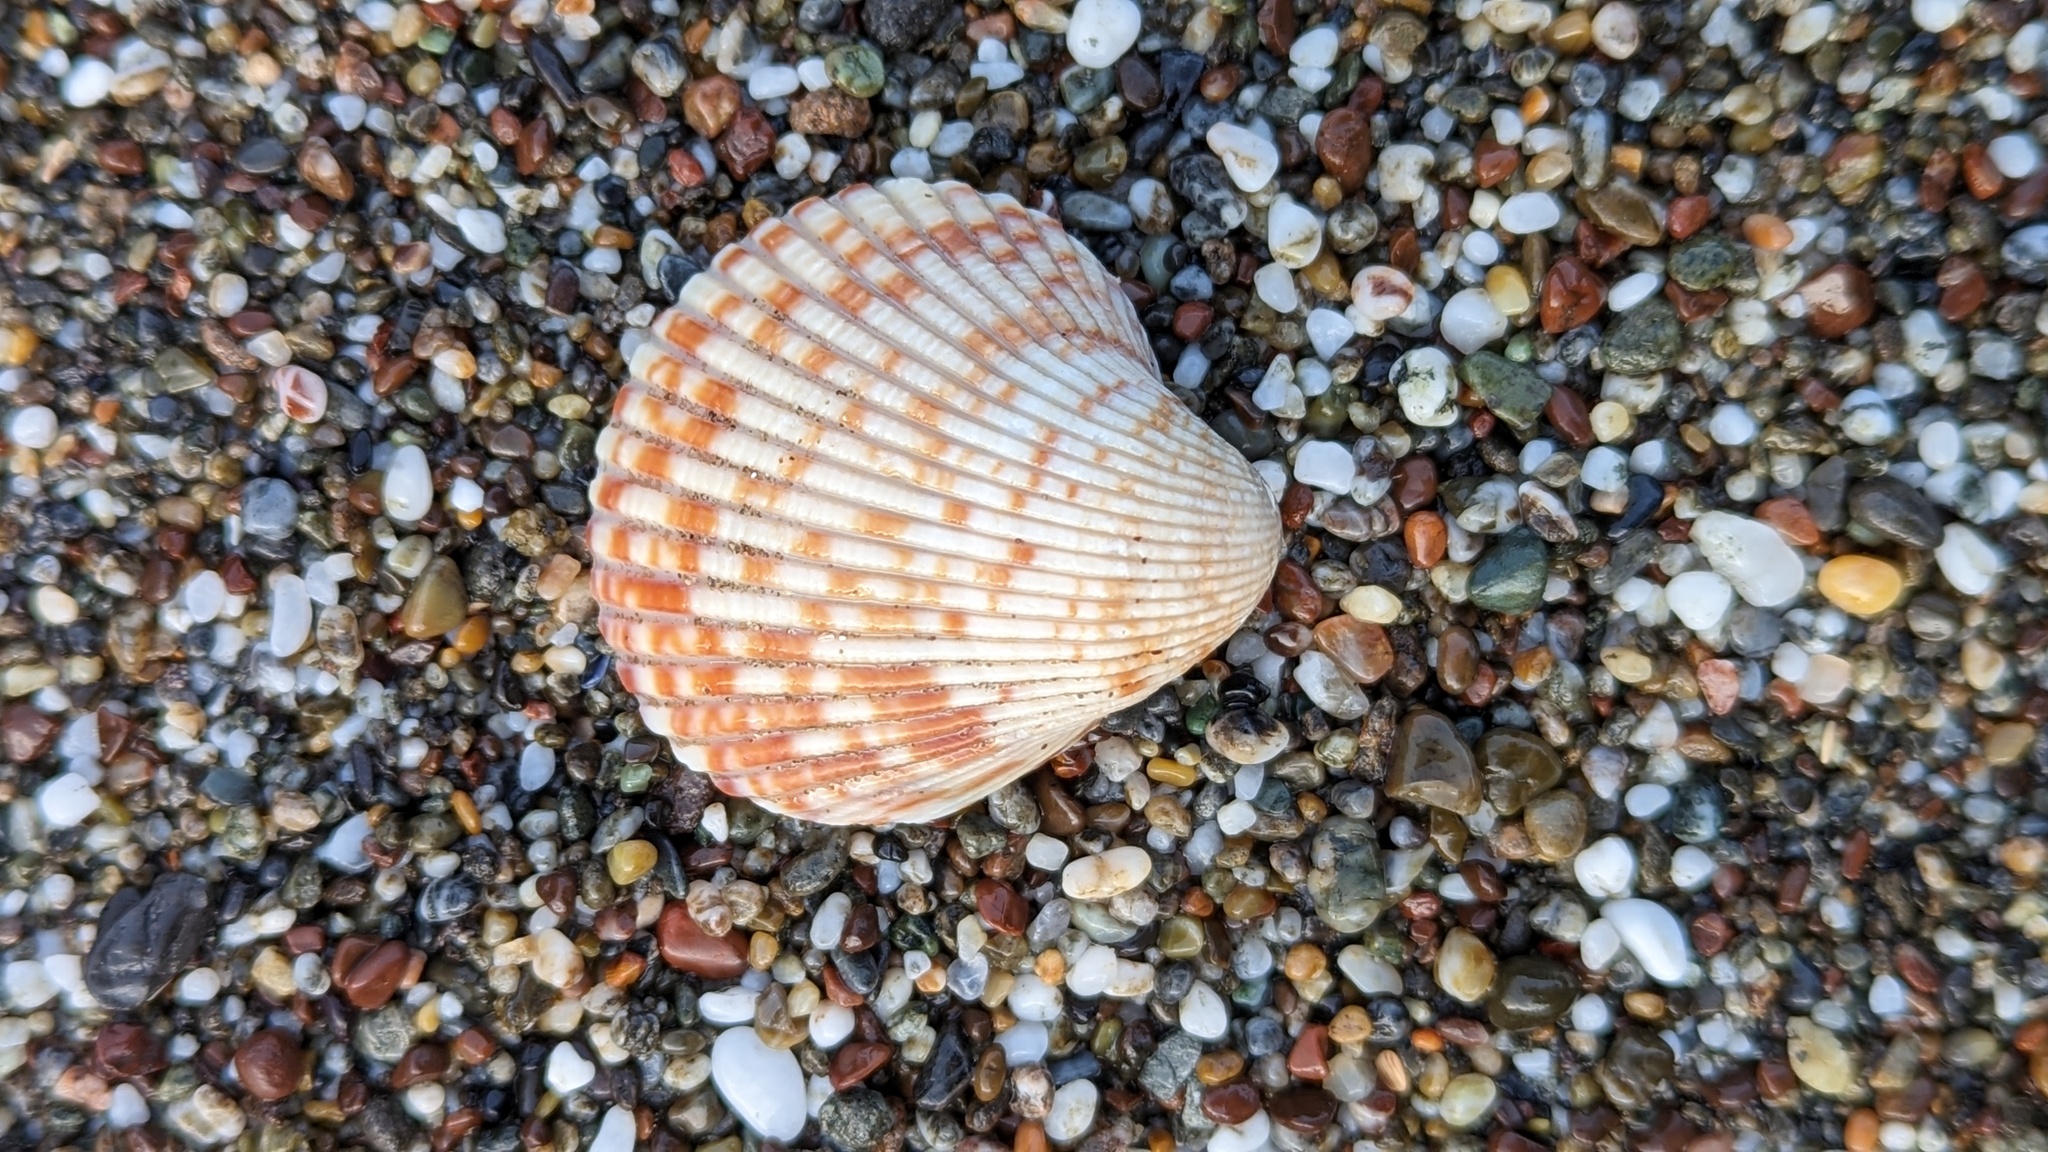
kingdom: Animalia
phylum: Mollusca
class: Bivalvia
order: Cardiida
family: Cardiidae
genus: Clinocardium
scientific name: Clinocardium nuttallii
